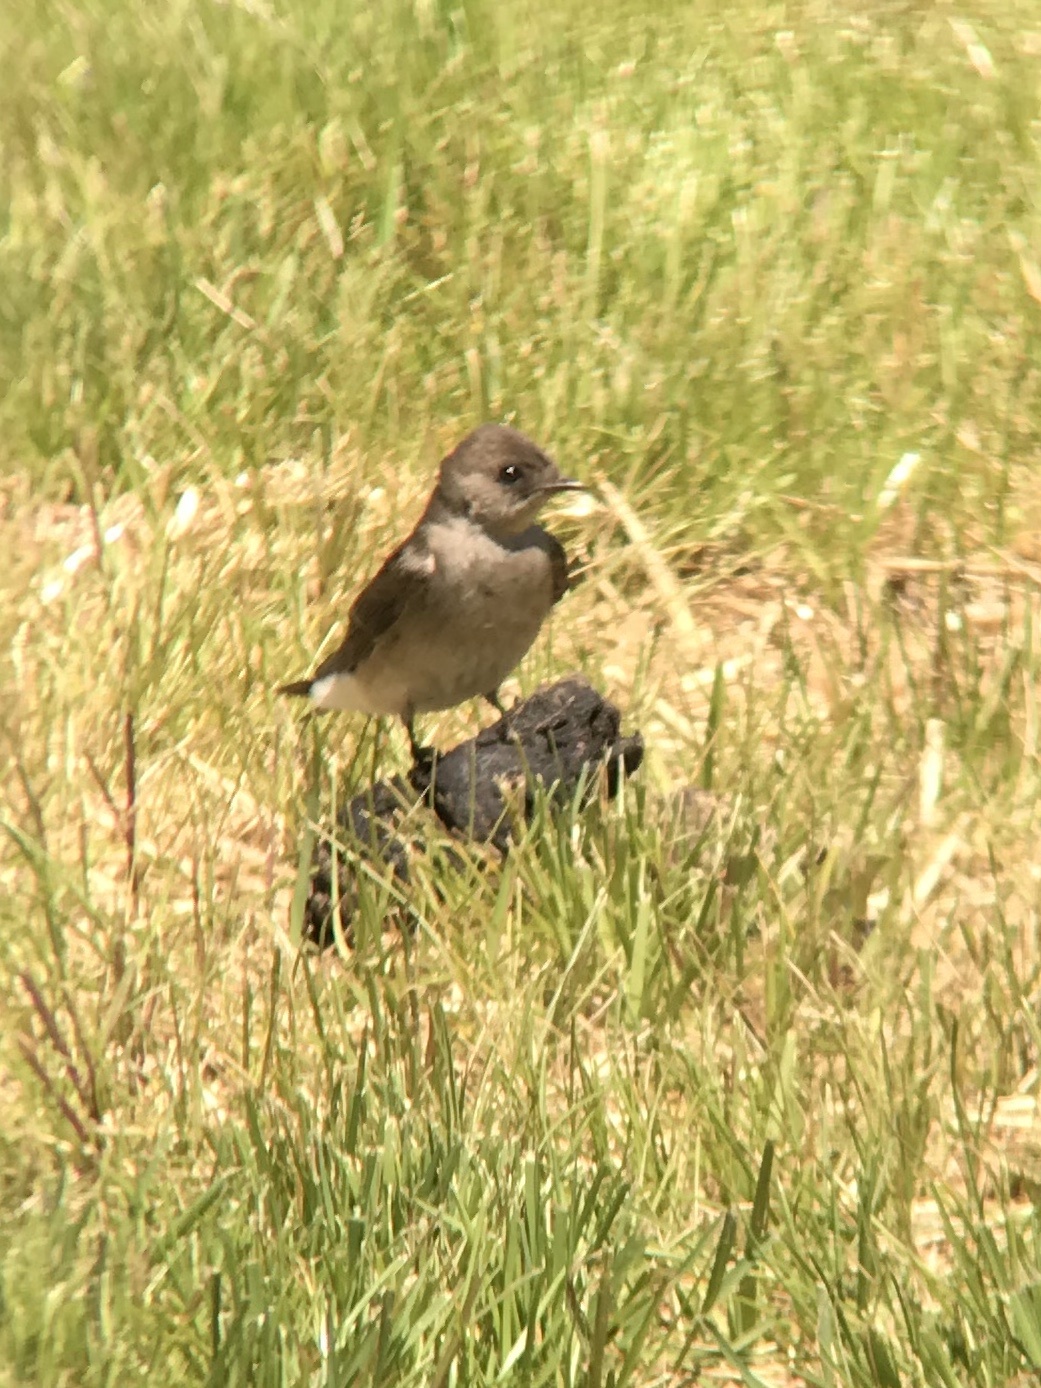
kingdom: Animalia
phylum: Chordata
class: Aves
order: Passeriformes
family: Hirundinidae
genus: Stelgidopteryx
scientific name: Stelgidopteryx serripennis
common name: Northern rough-winged swallow
